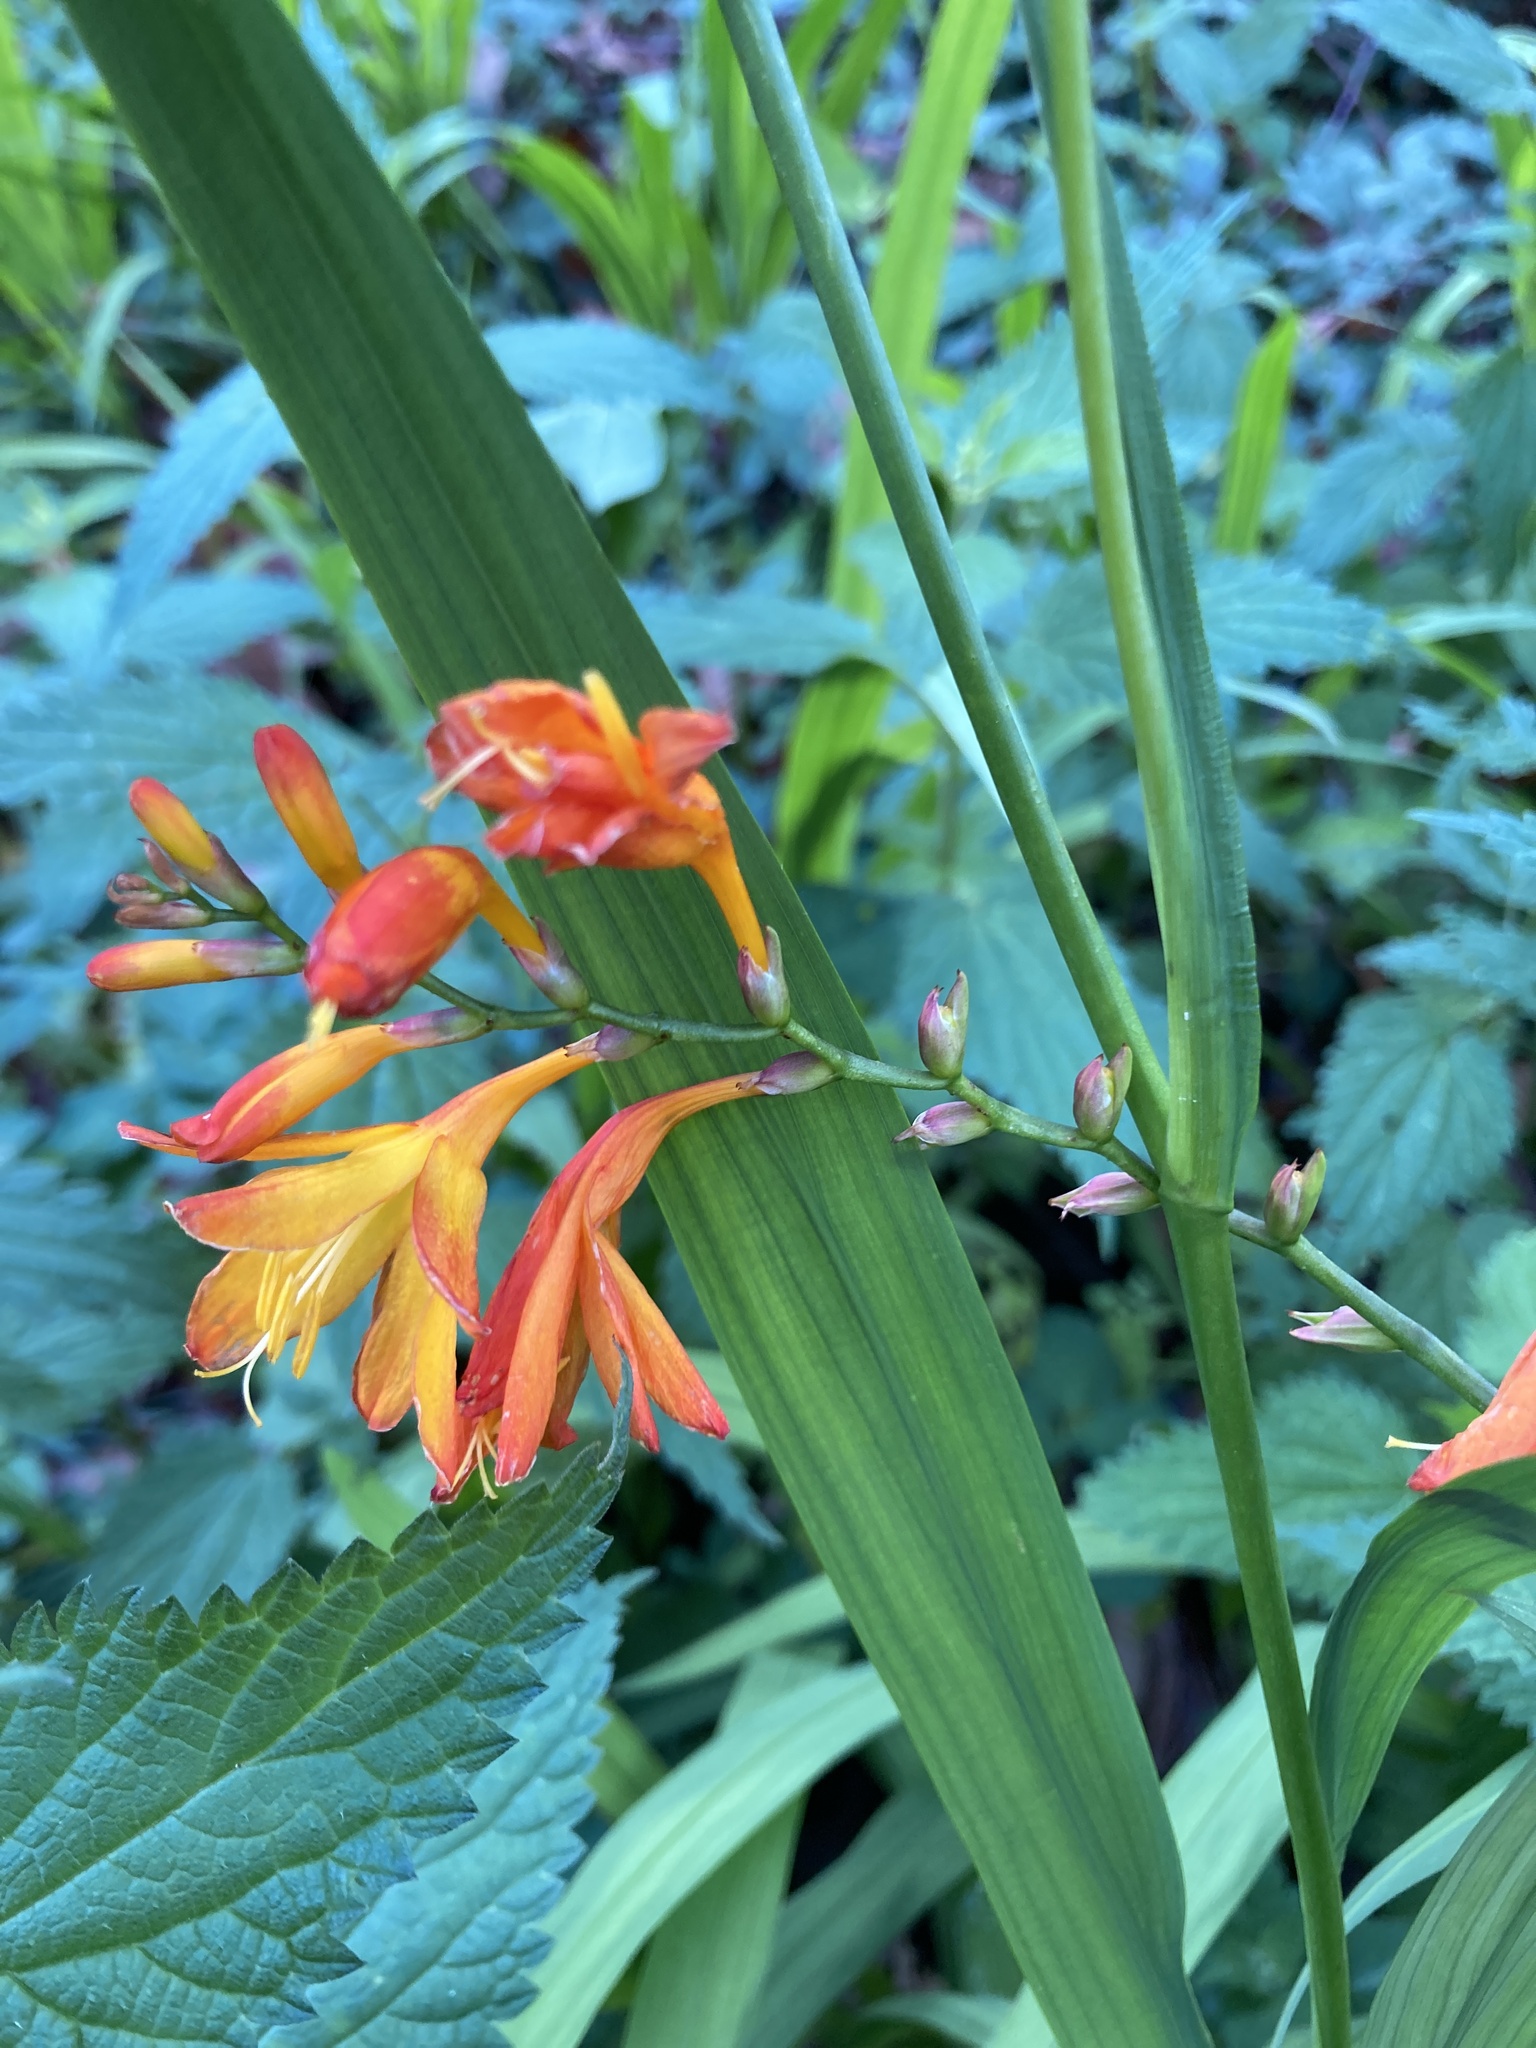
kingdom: Plantae
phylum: Tracheophyta
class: Liliopsida
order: Asparagales
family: Iridaceae
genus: Crocosmia
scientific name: Crocosmia crocosmiiflora
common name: Montbretia
